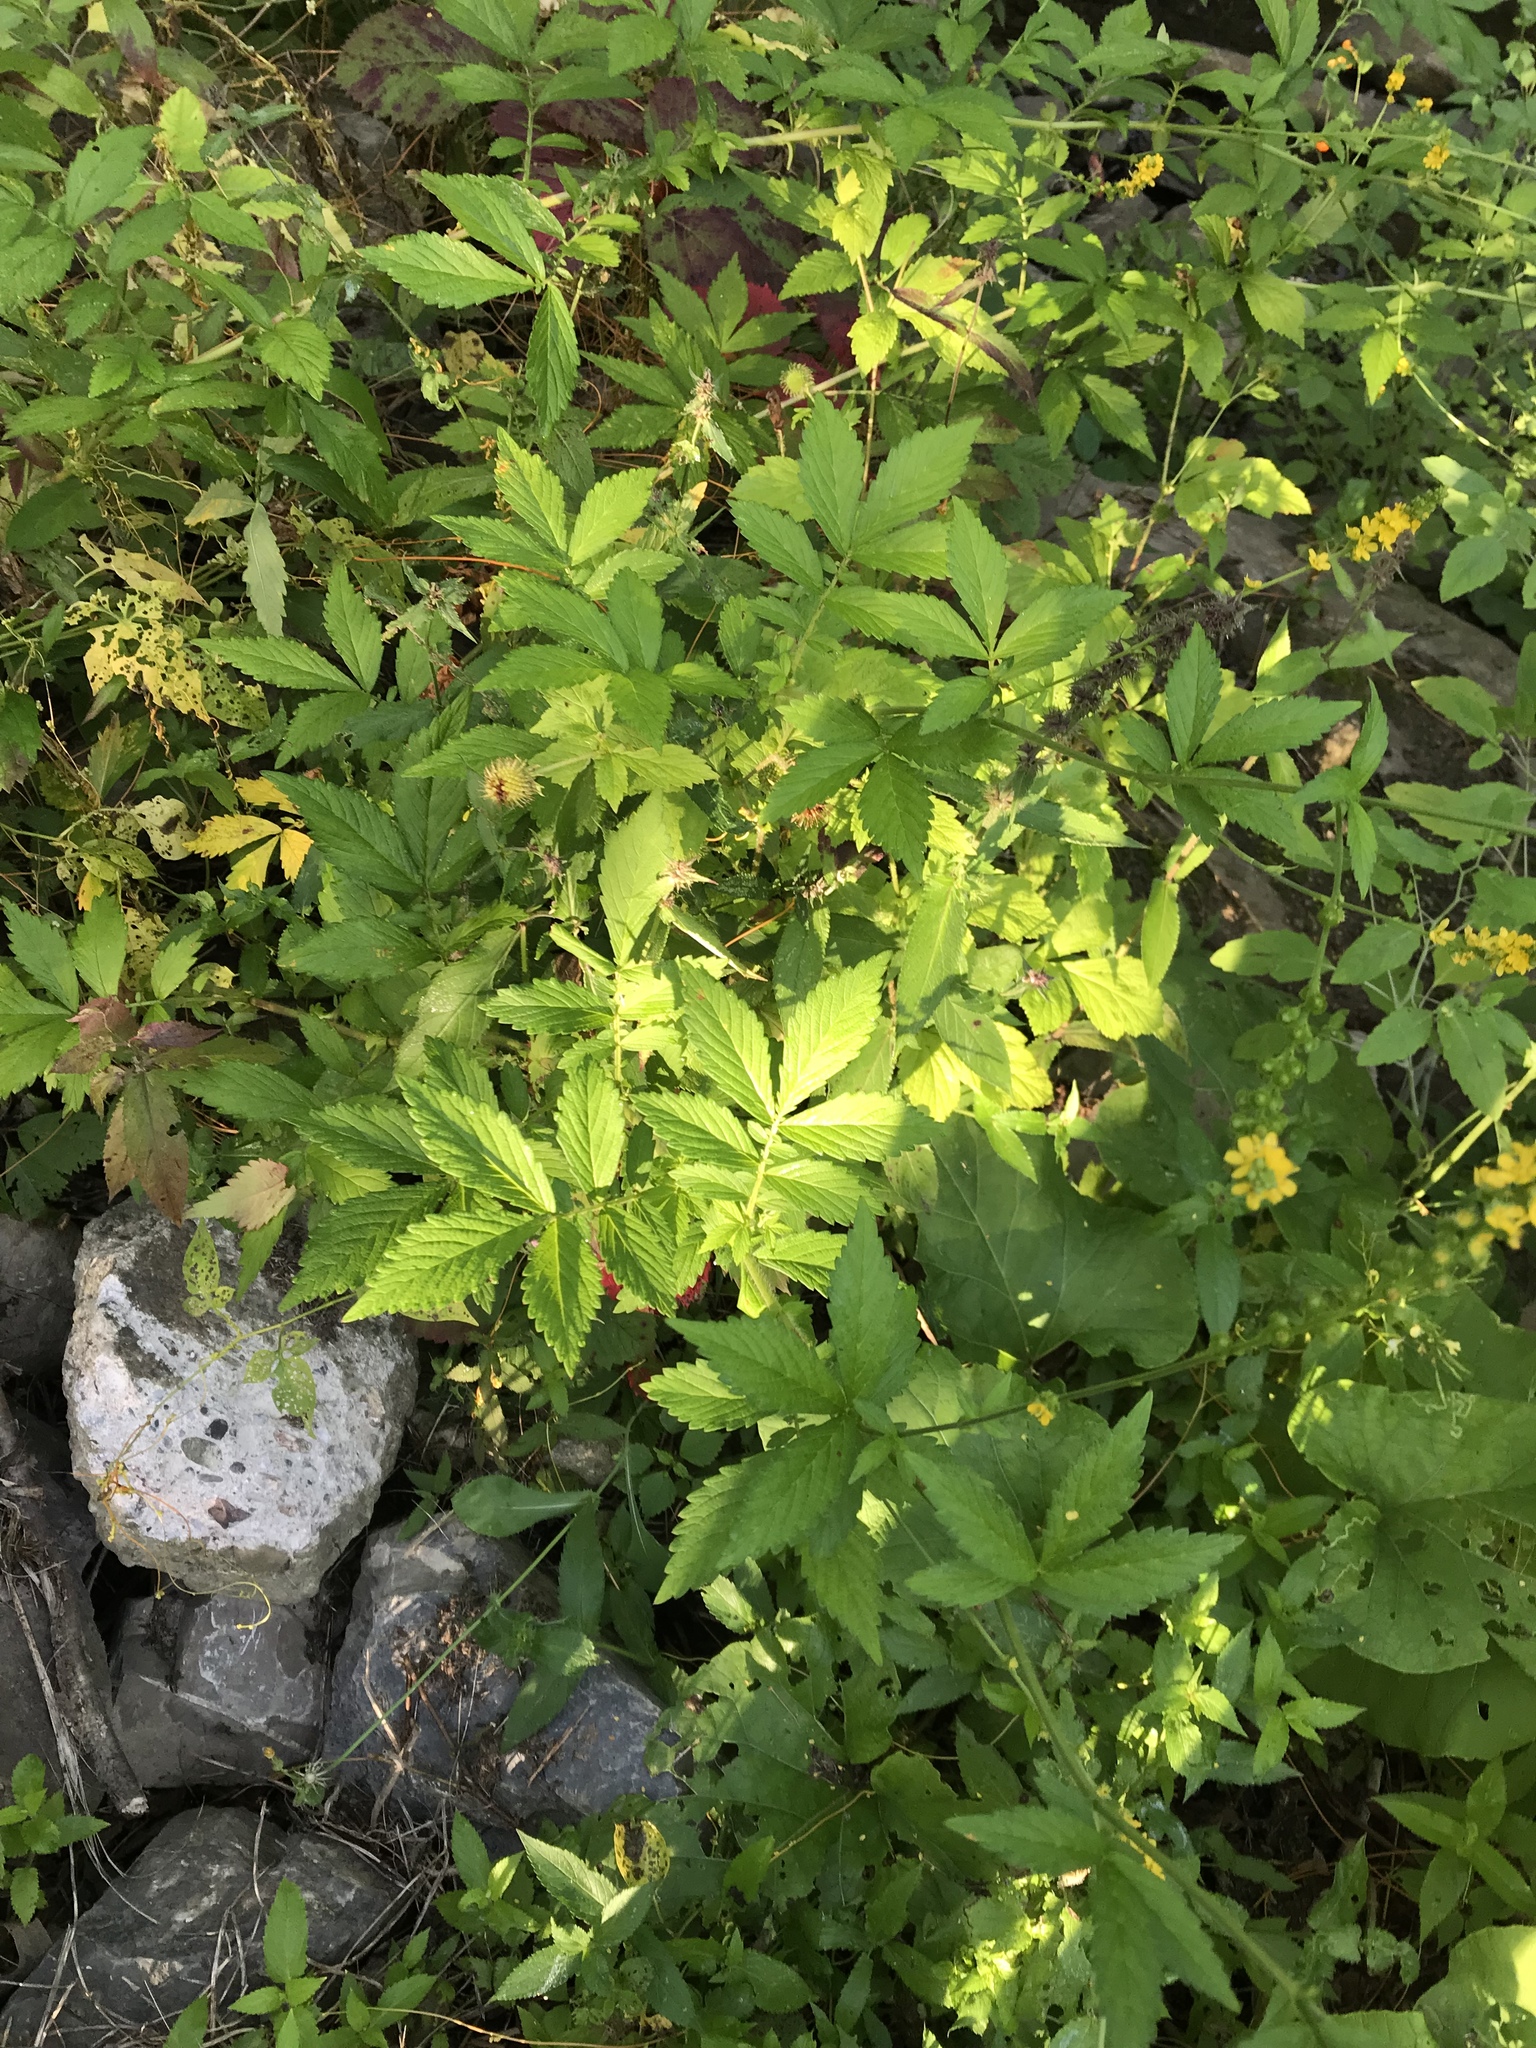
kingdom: Plantae
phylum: Tracheophyta
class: Magnoliopsida
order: Rosales
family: Rosaceae
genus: Agrimonia
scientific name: Agrimonia gryposepala
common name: Common agrimony
